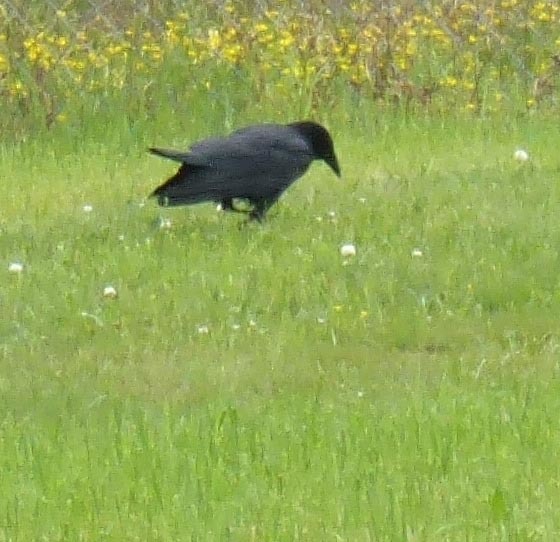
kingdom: Animalia
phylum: Chordata
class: Aves
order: Passeriformes
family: Corvidae
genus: Corvus
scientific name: Corvus brachyrhynchos
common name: American crow
